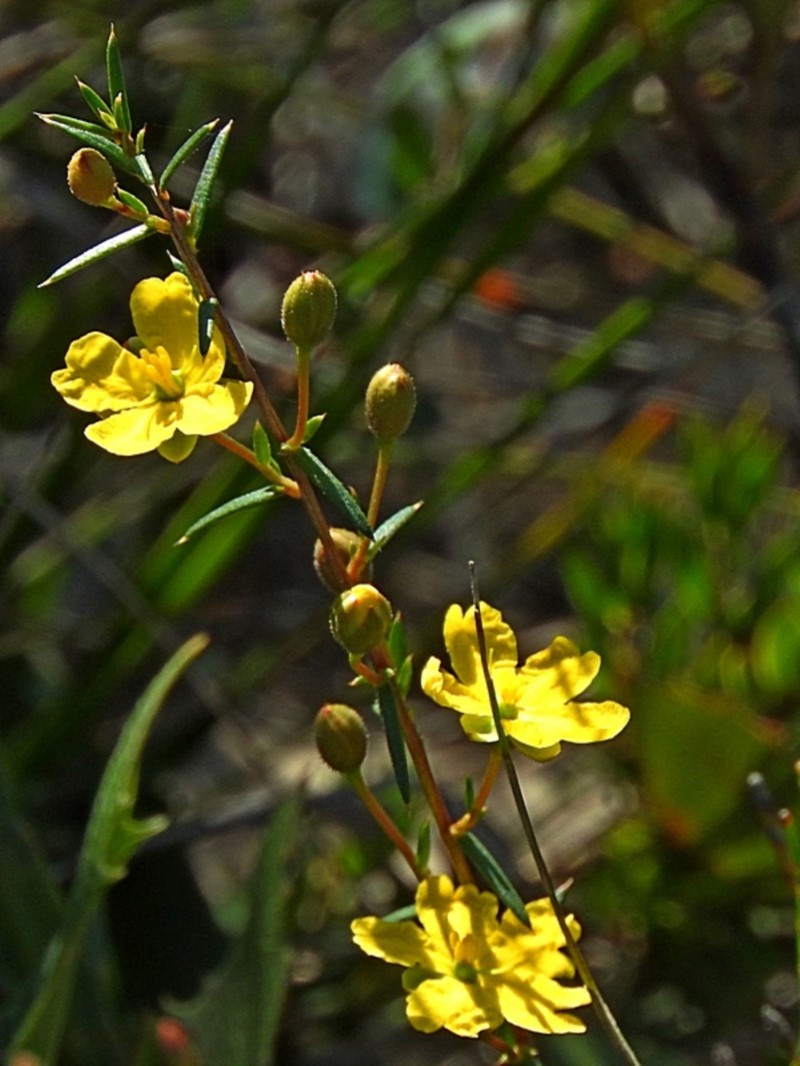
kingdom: Plantae
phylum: Tracheophyta
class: Magnoliopsida
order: Dilleniales
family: Dilleniaceae
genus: Hibbertia
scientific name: Hibbertia acicularis
